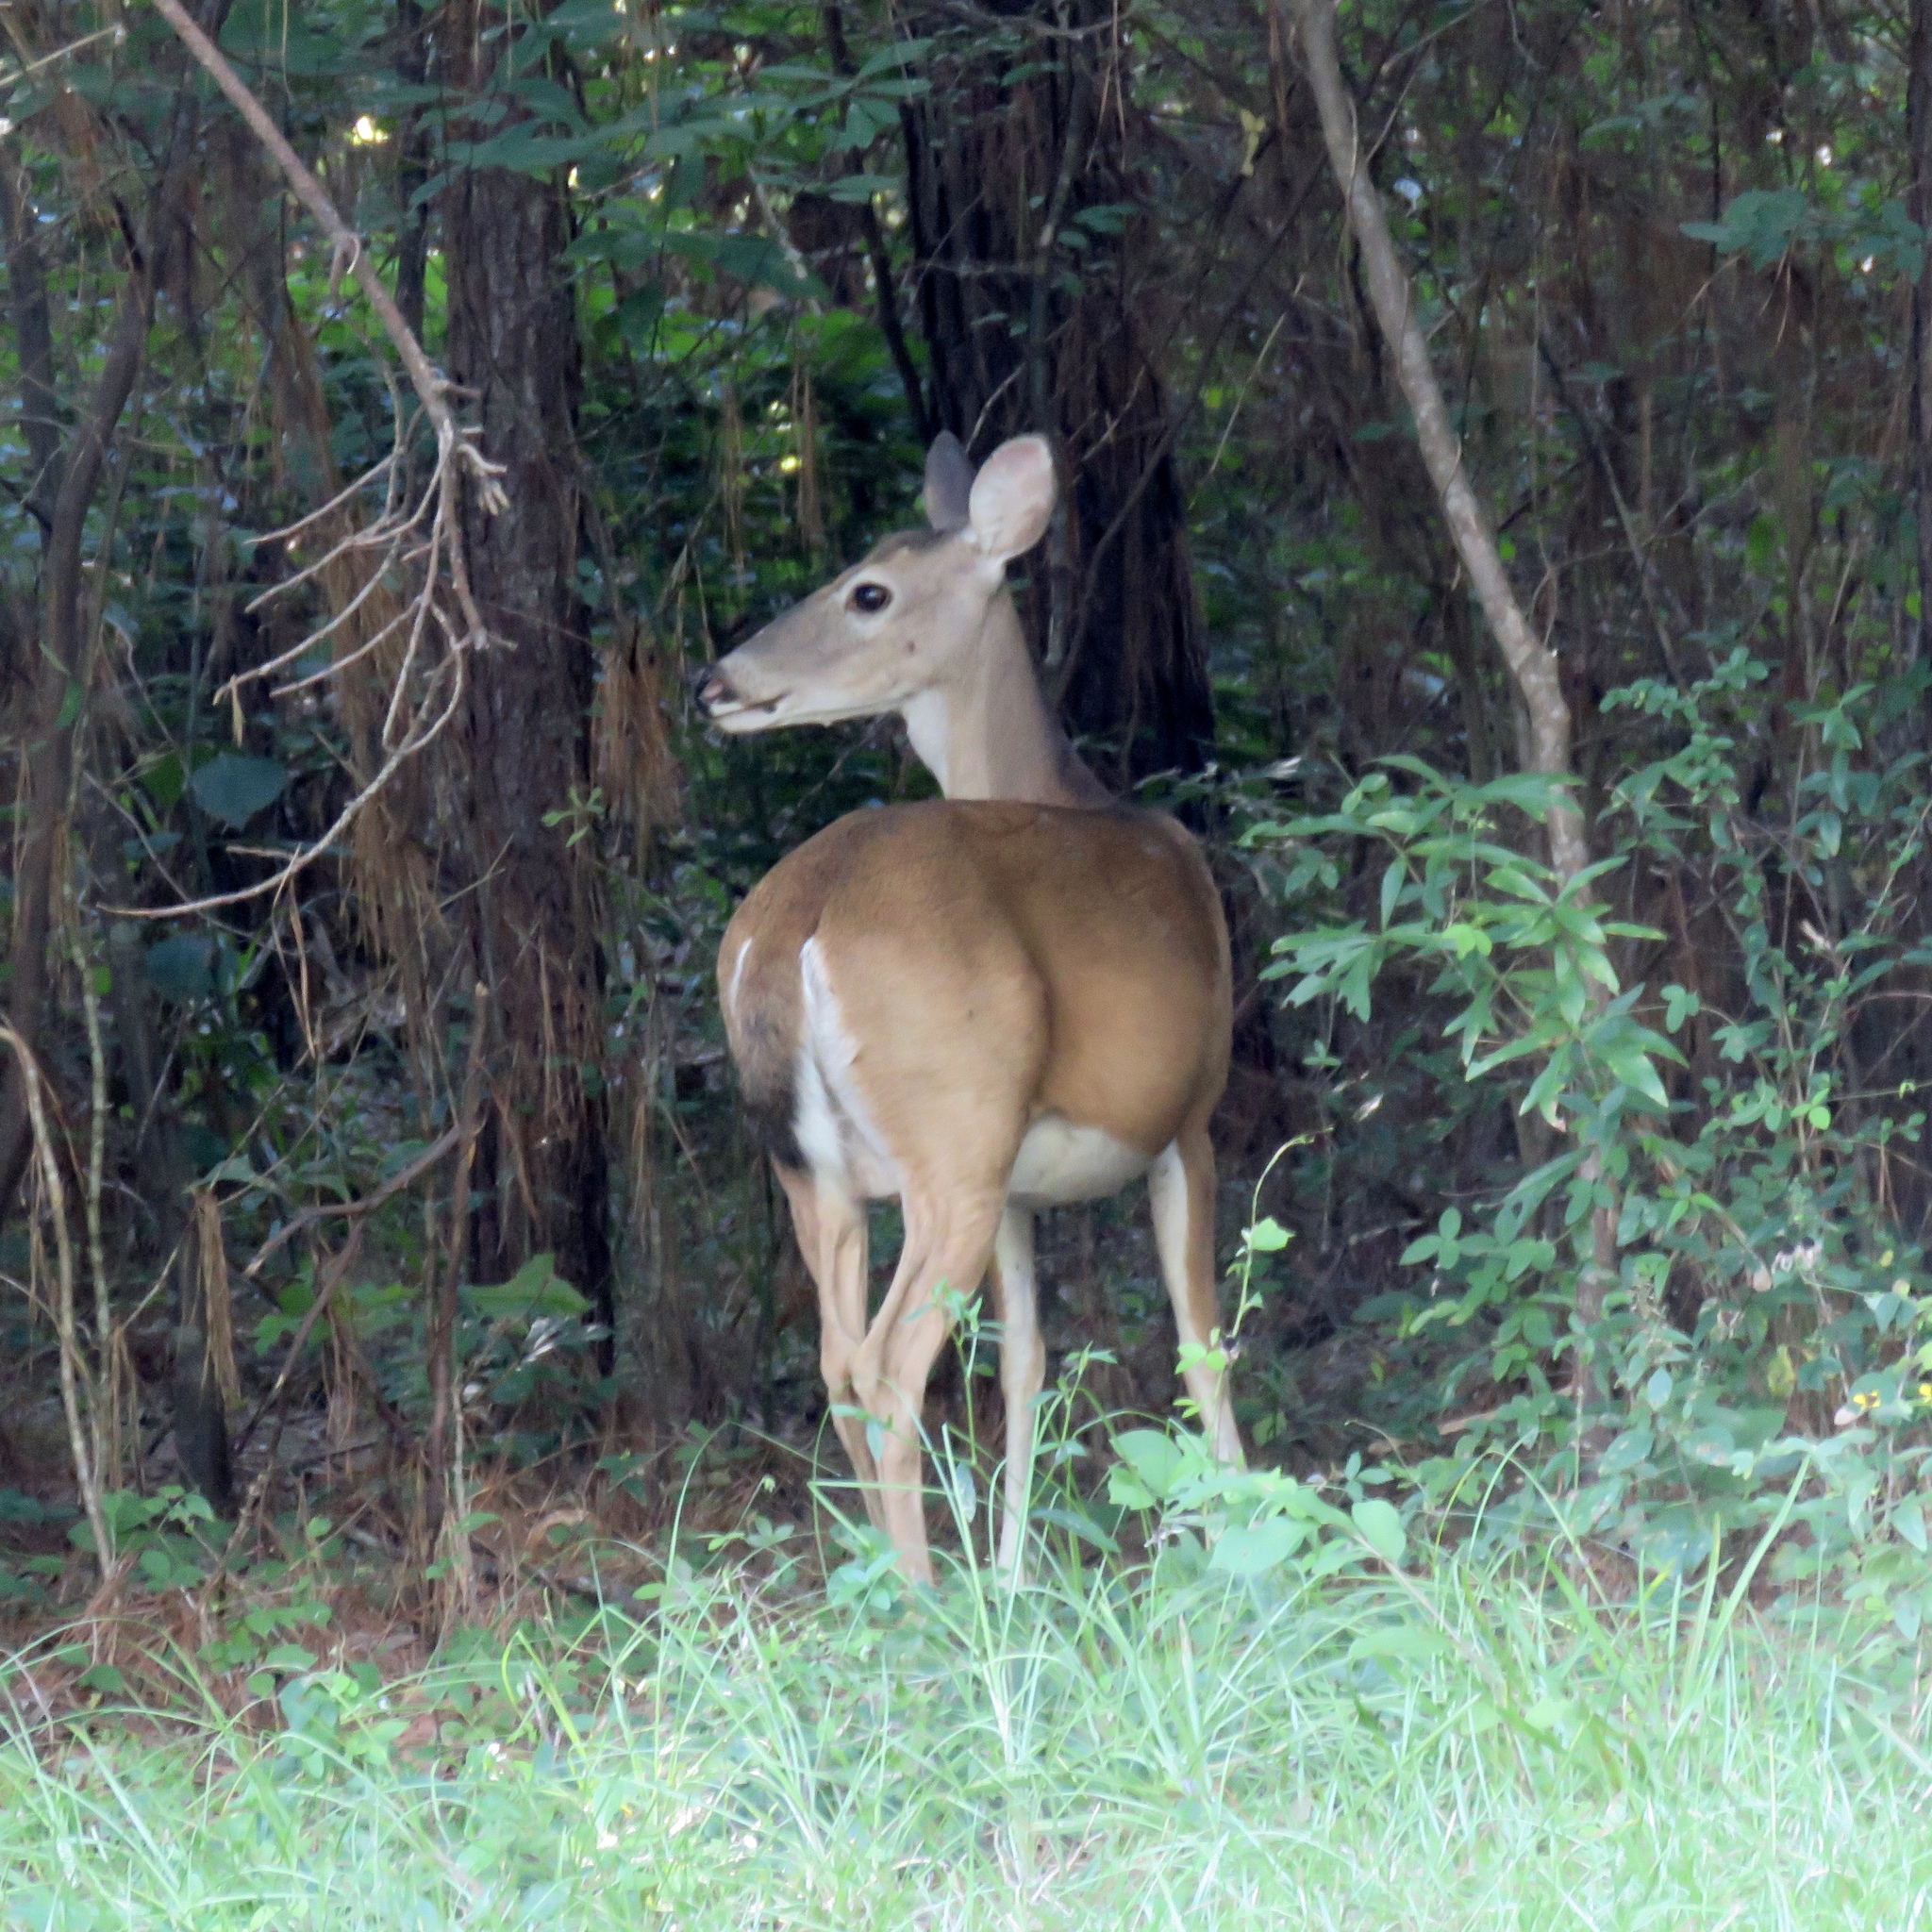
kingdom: Animalia
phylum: Chordata
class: Mammalia
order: Artiodactyla
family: Cervidae
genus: Odocoileus
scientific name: Odocoileus virginianus
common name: White-tailed deer
